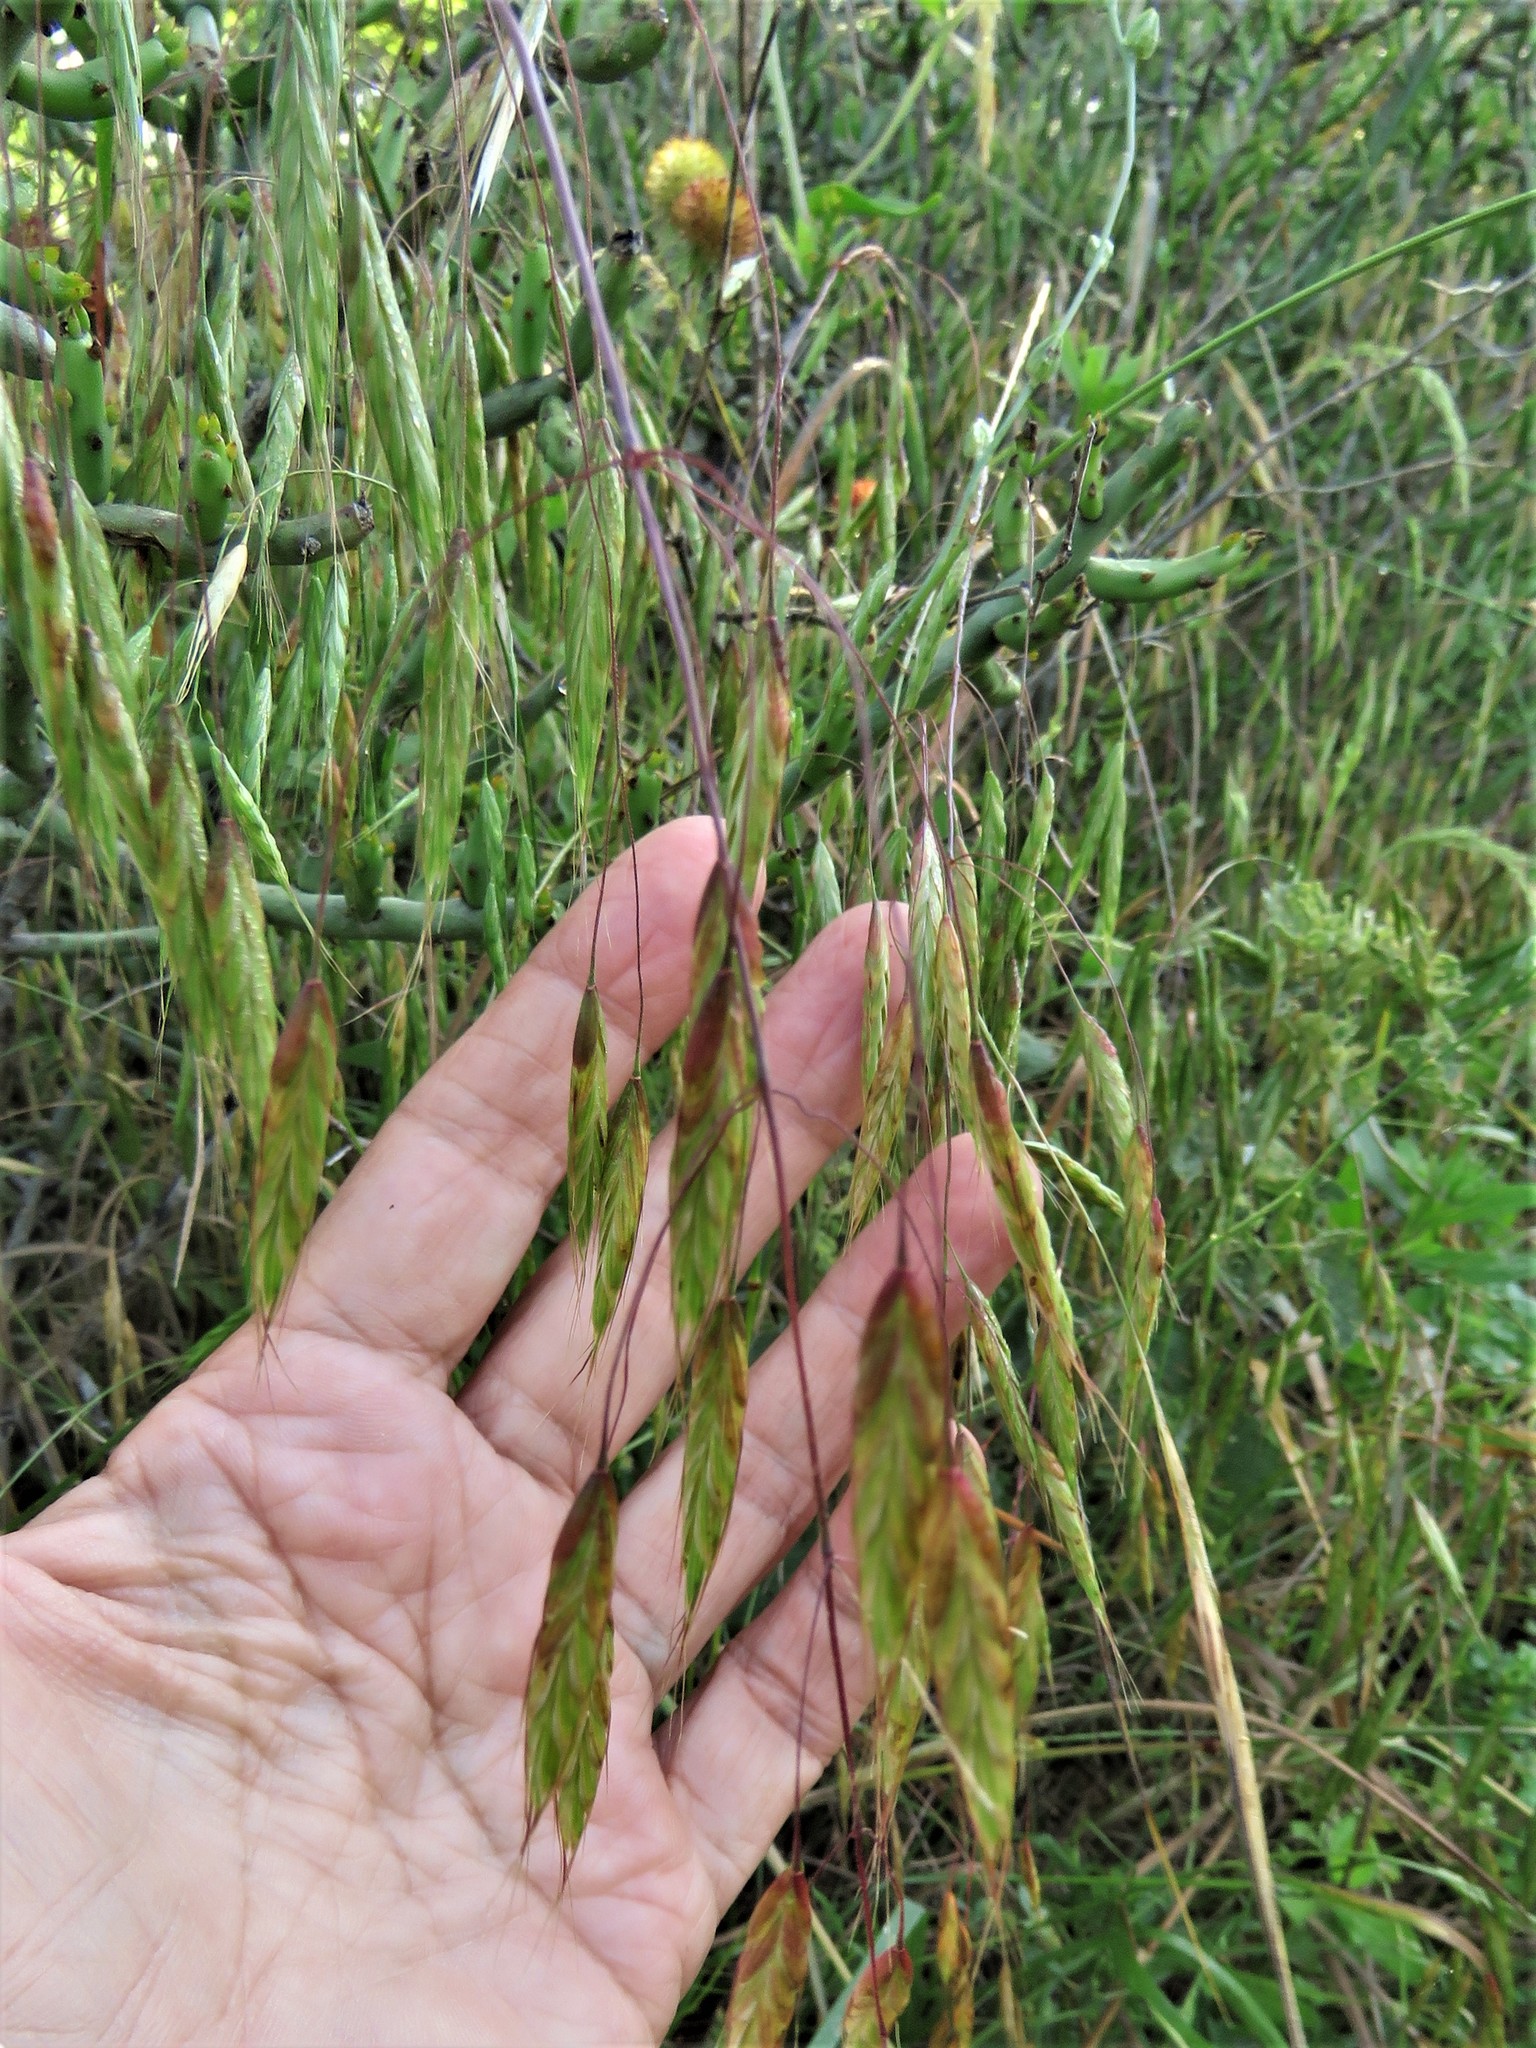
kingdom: Plantae
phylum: Tracheophyta
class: Liliopsida
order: Poales
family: Poaceae
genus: Bromus
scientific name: Bromus japonicus
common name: Japanese brome
